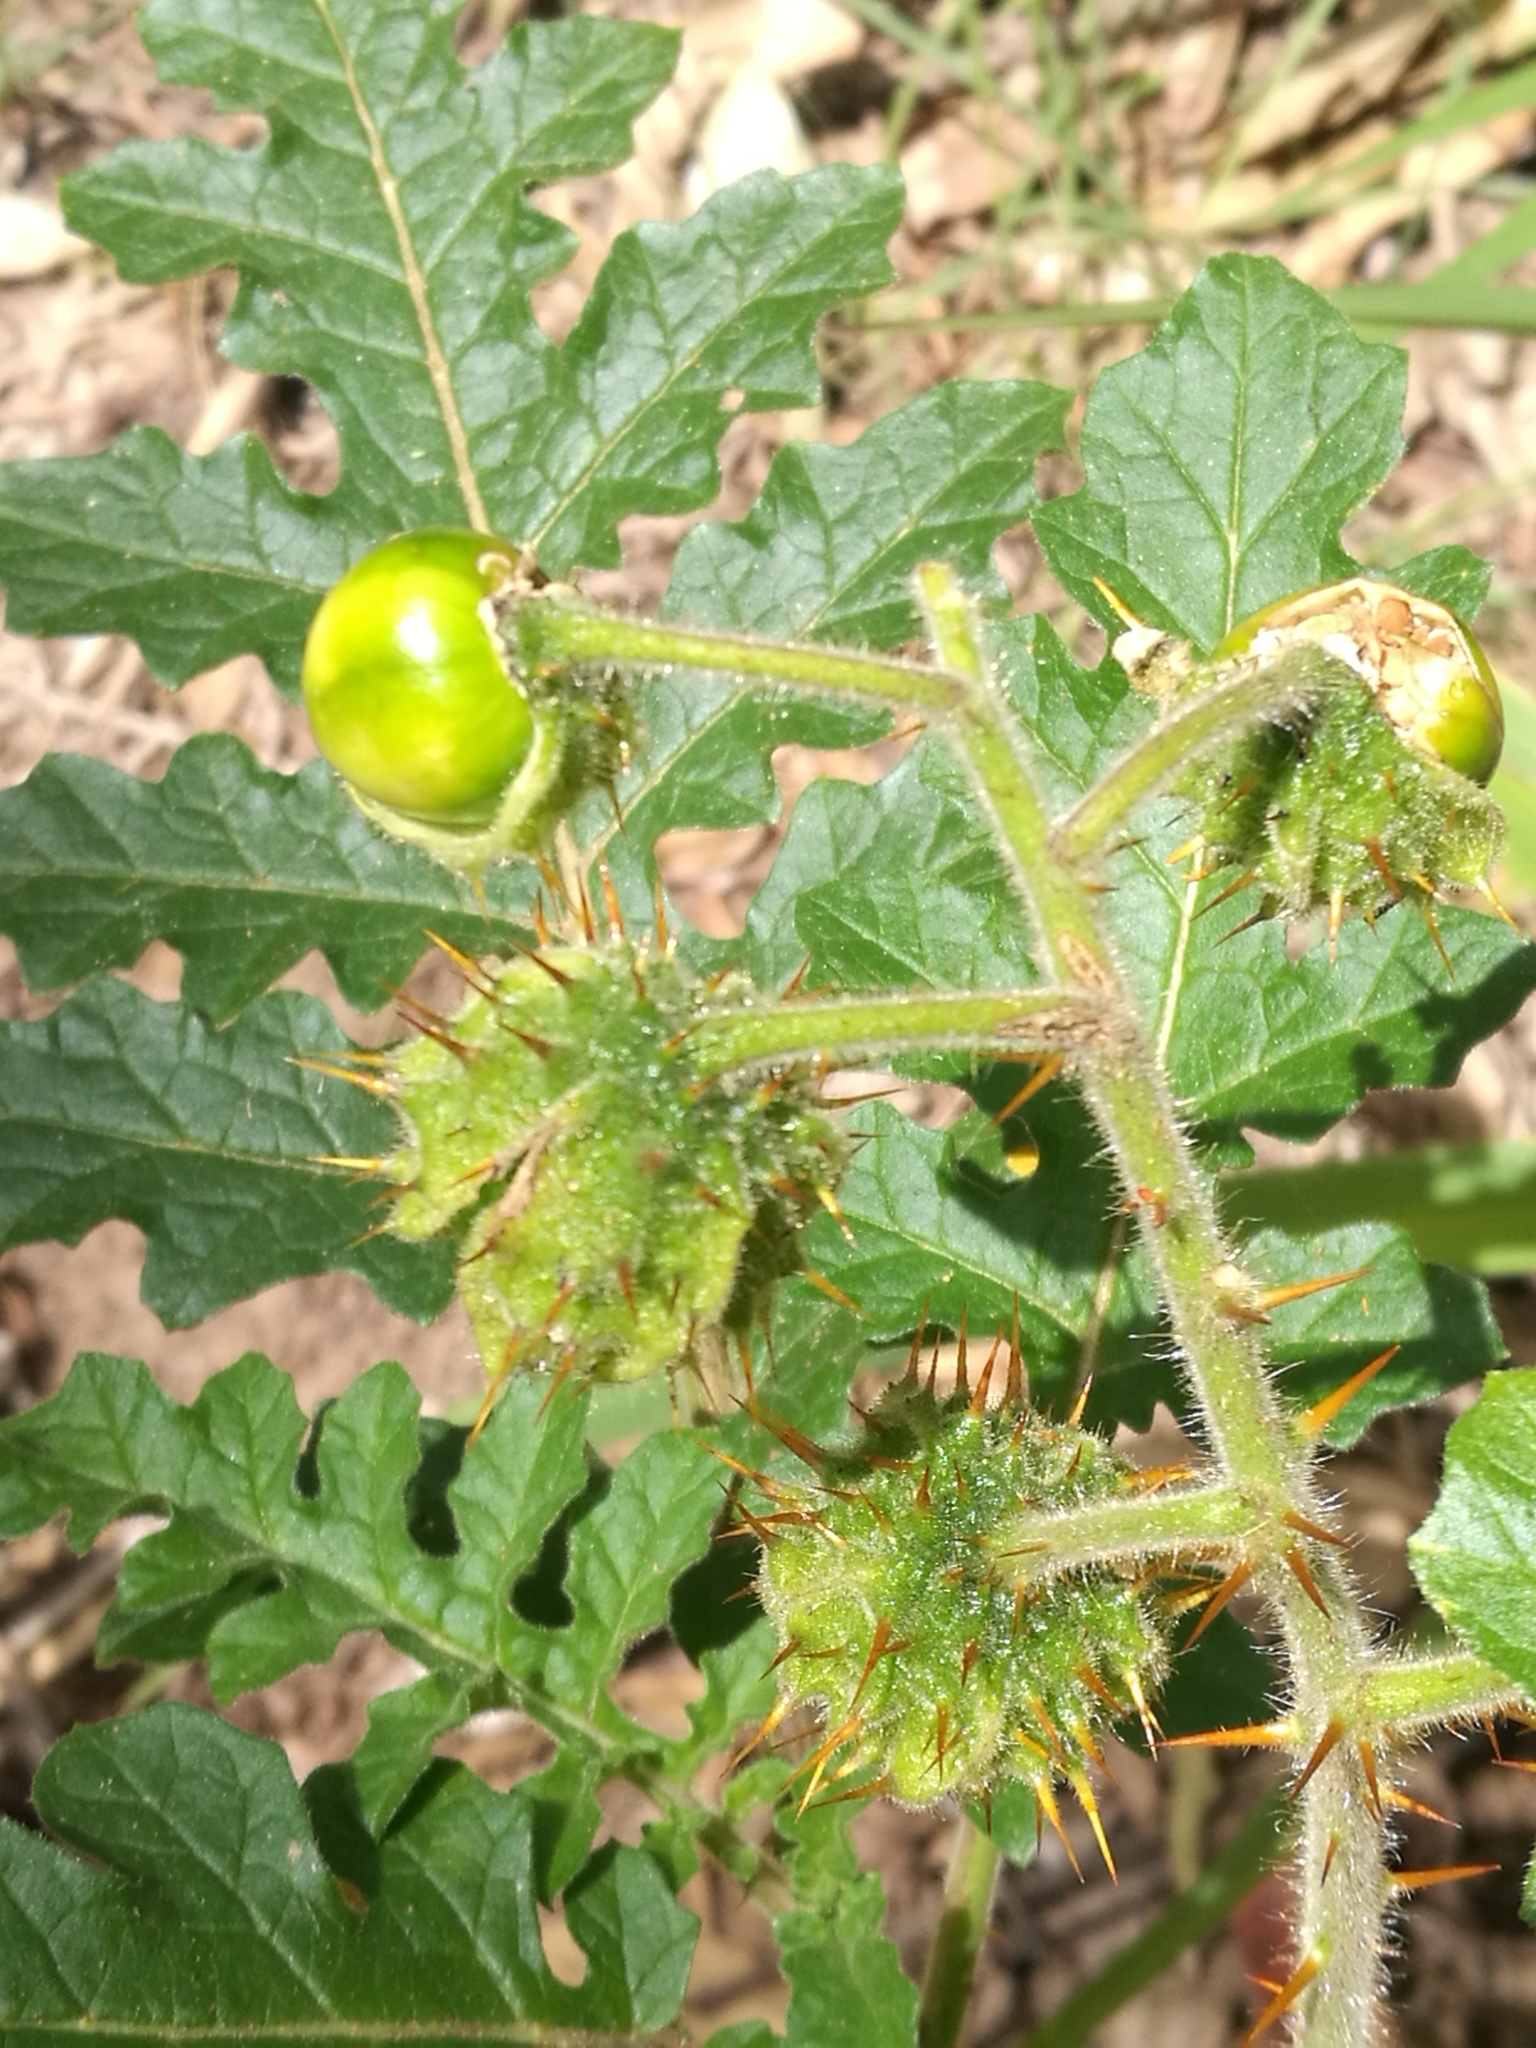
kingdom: Plantae
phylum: Tracheophyta
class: Magnoliopsida
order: Solanales
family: Solanaceae
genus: Solanum
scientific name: Solanum sisymbriifolium
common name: Red buffalo-bur
